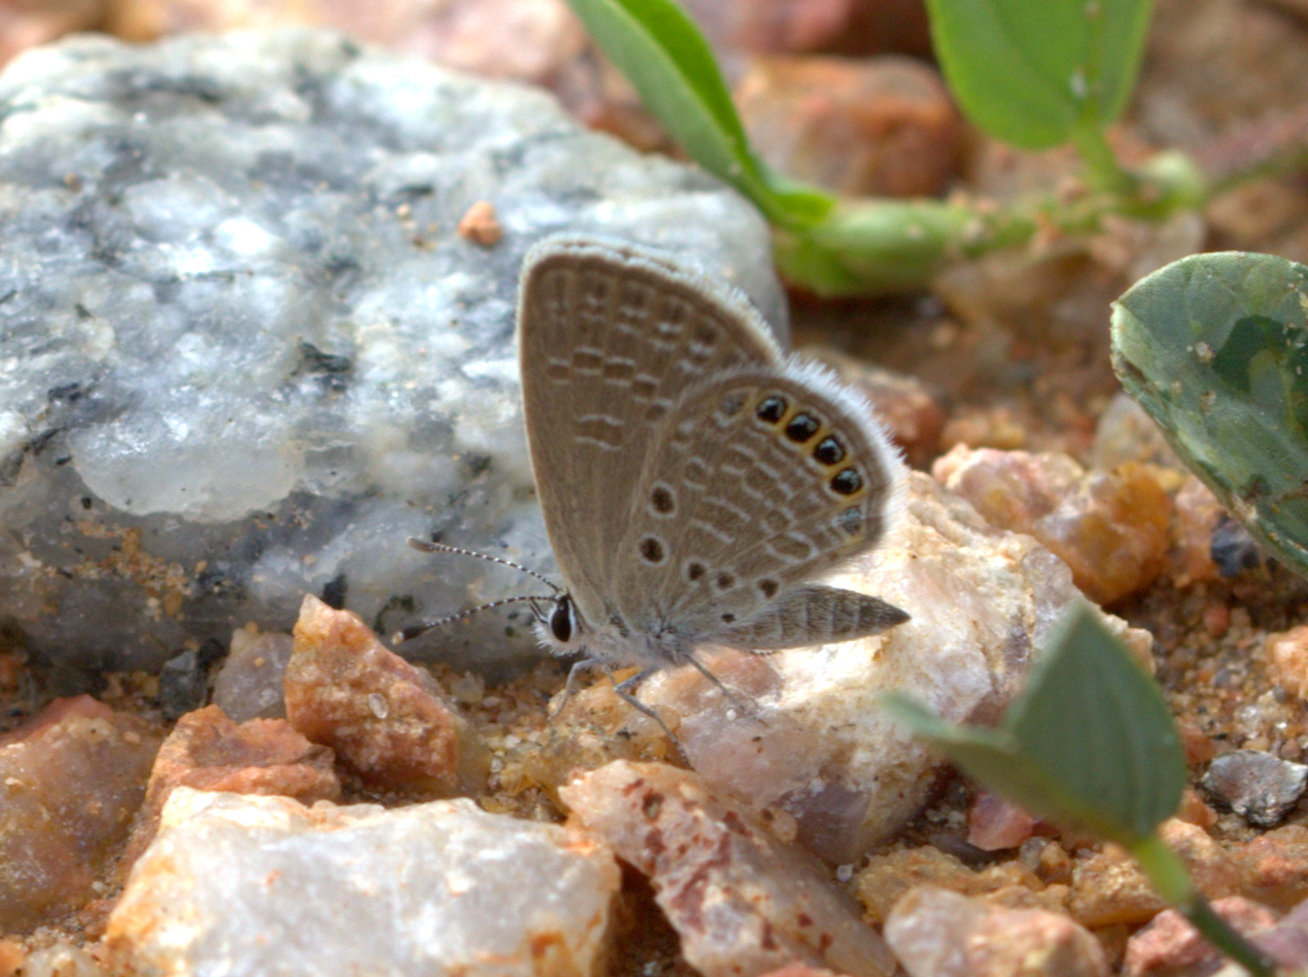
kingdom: Animalia
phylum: Arthropoda
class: Insecta
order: Lepidoptera
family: Lycaenidae
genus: Freyeria
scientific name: Freyeria putli
